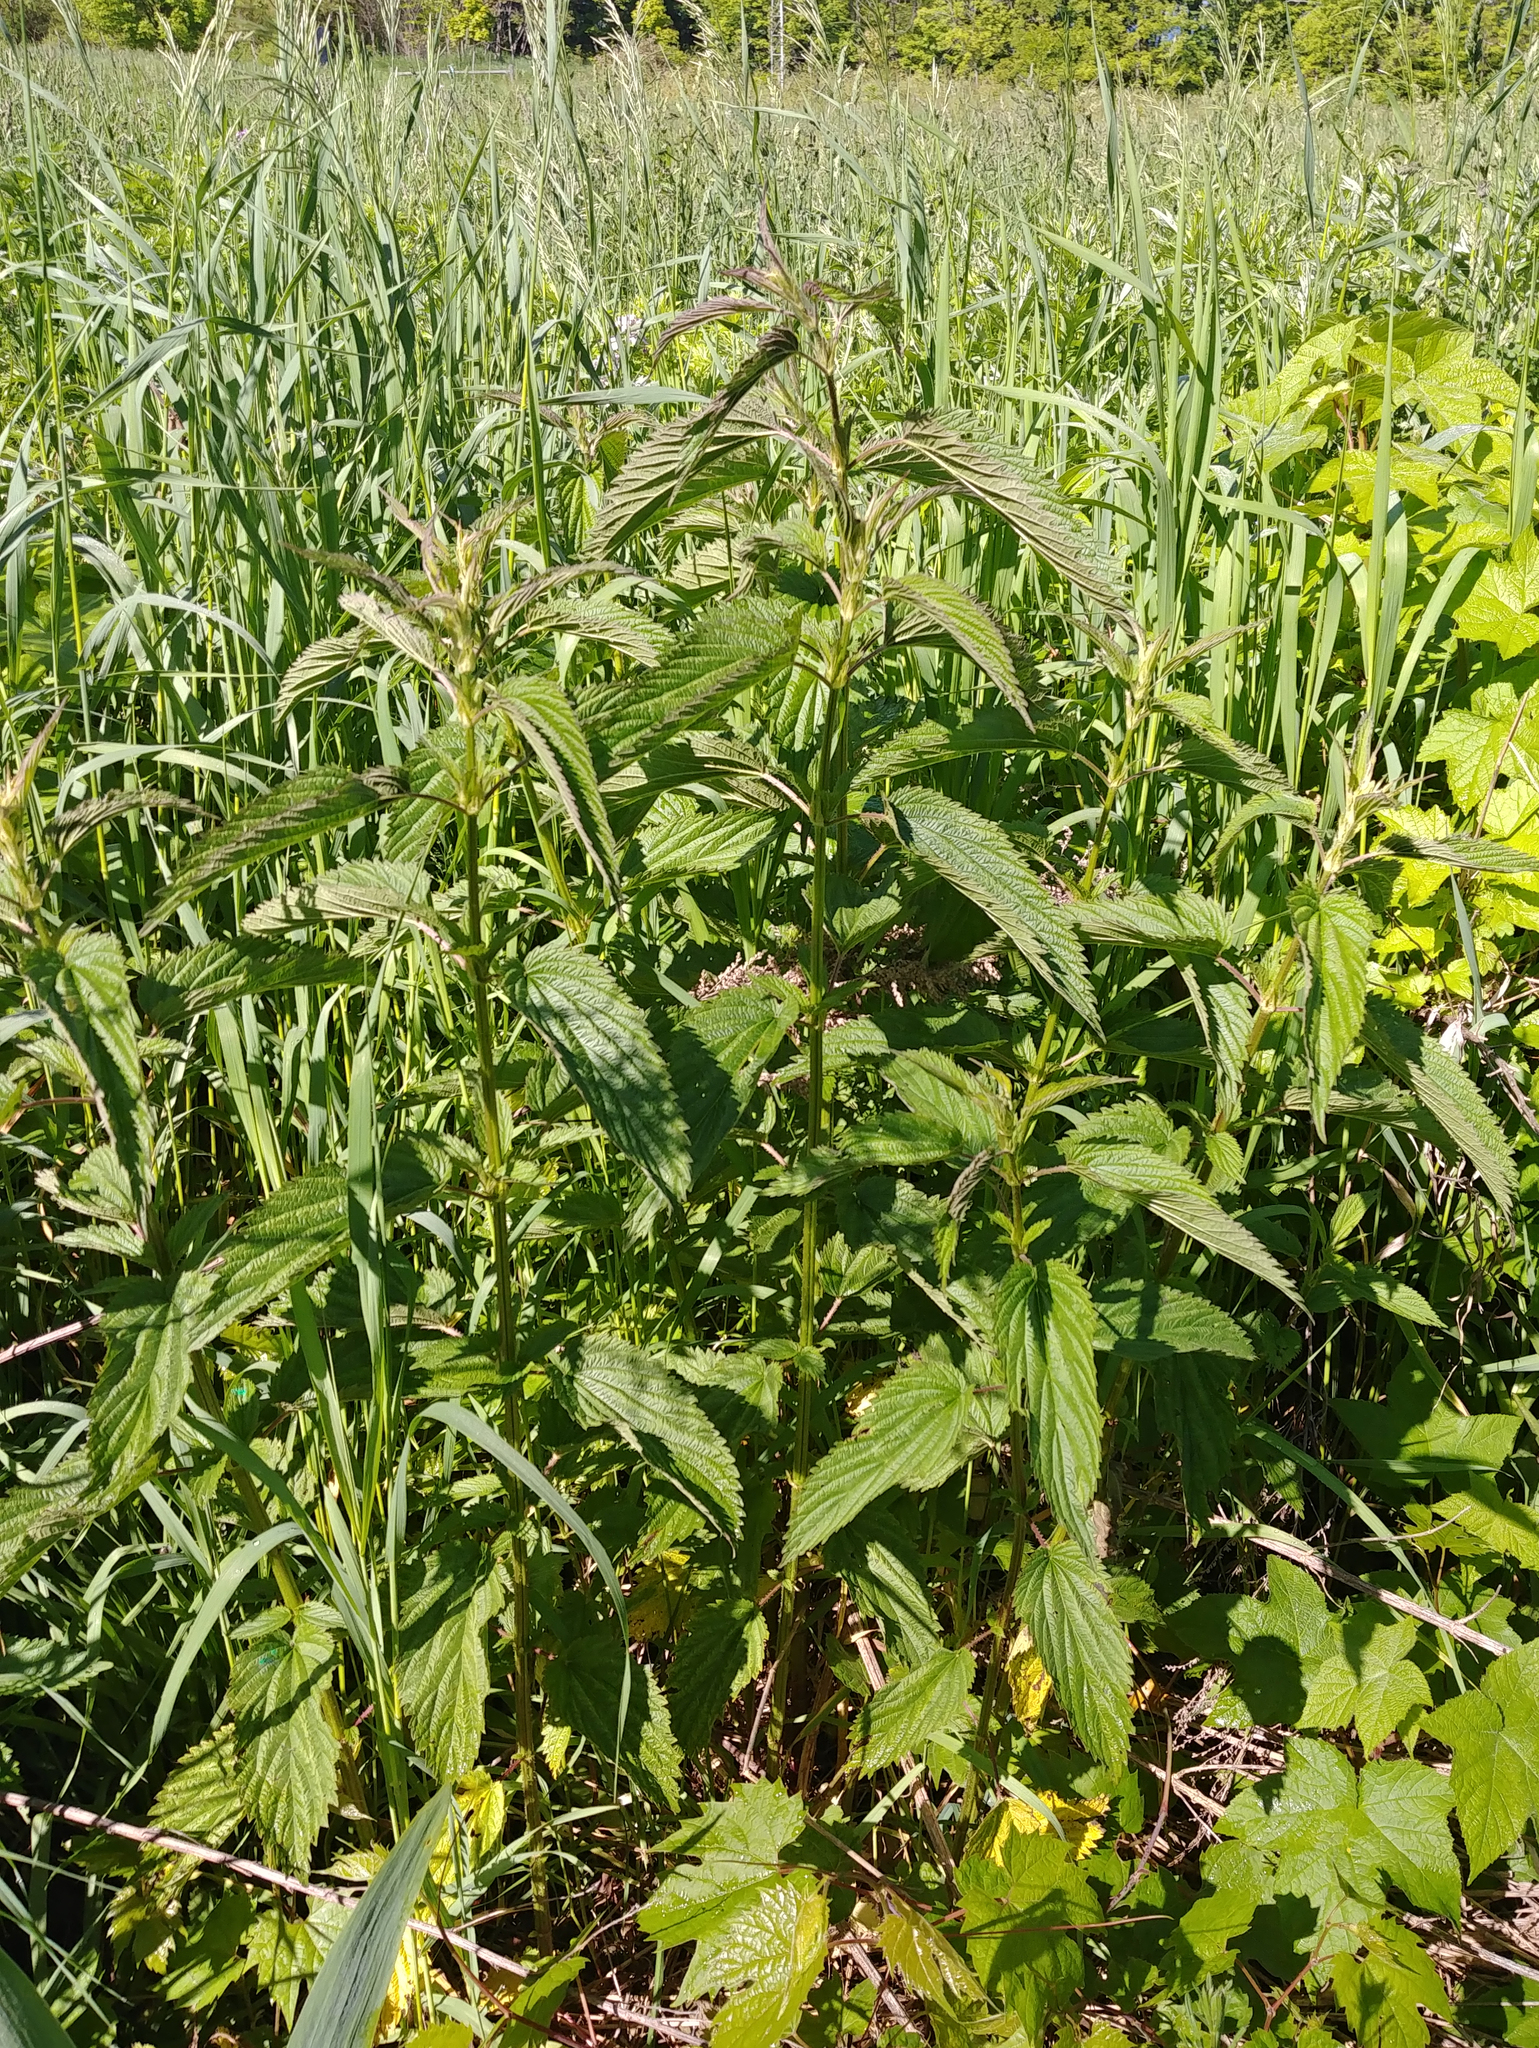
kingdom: Plantae
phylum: Tracheophyta
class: Magnoliopsida
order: Rosales
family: Urticaceae
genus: Urtica
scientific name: Urtica dioica
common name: Common nettle
